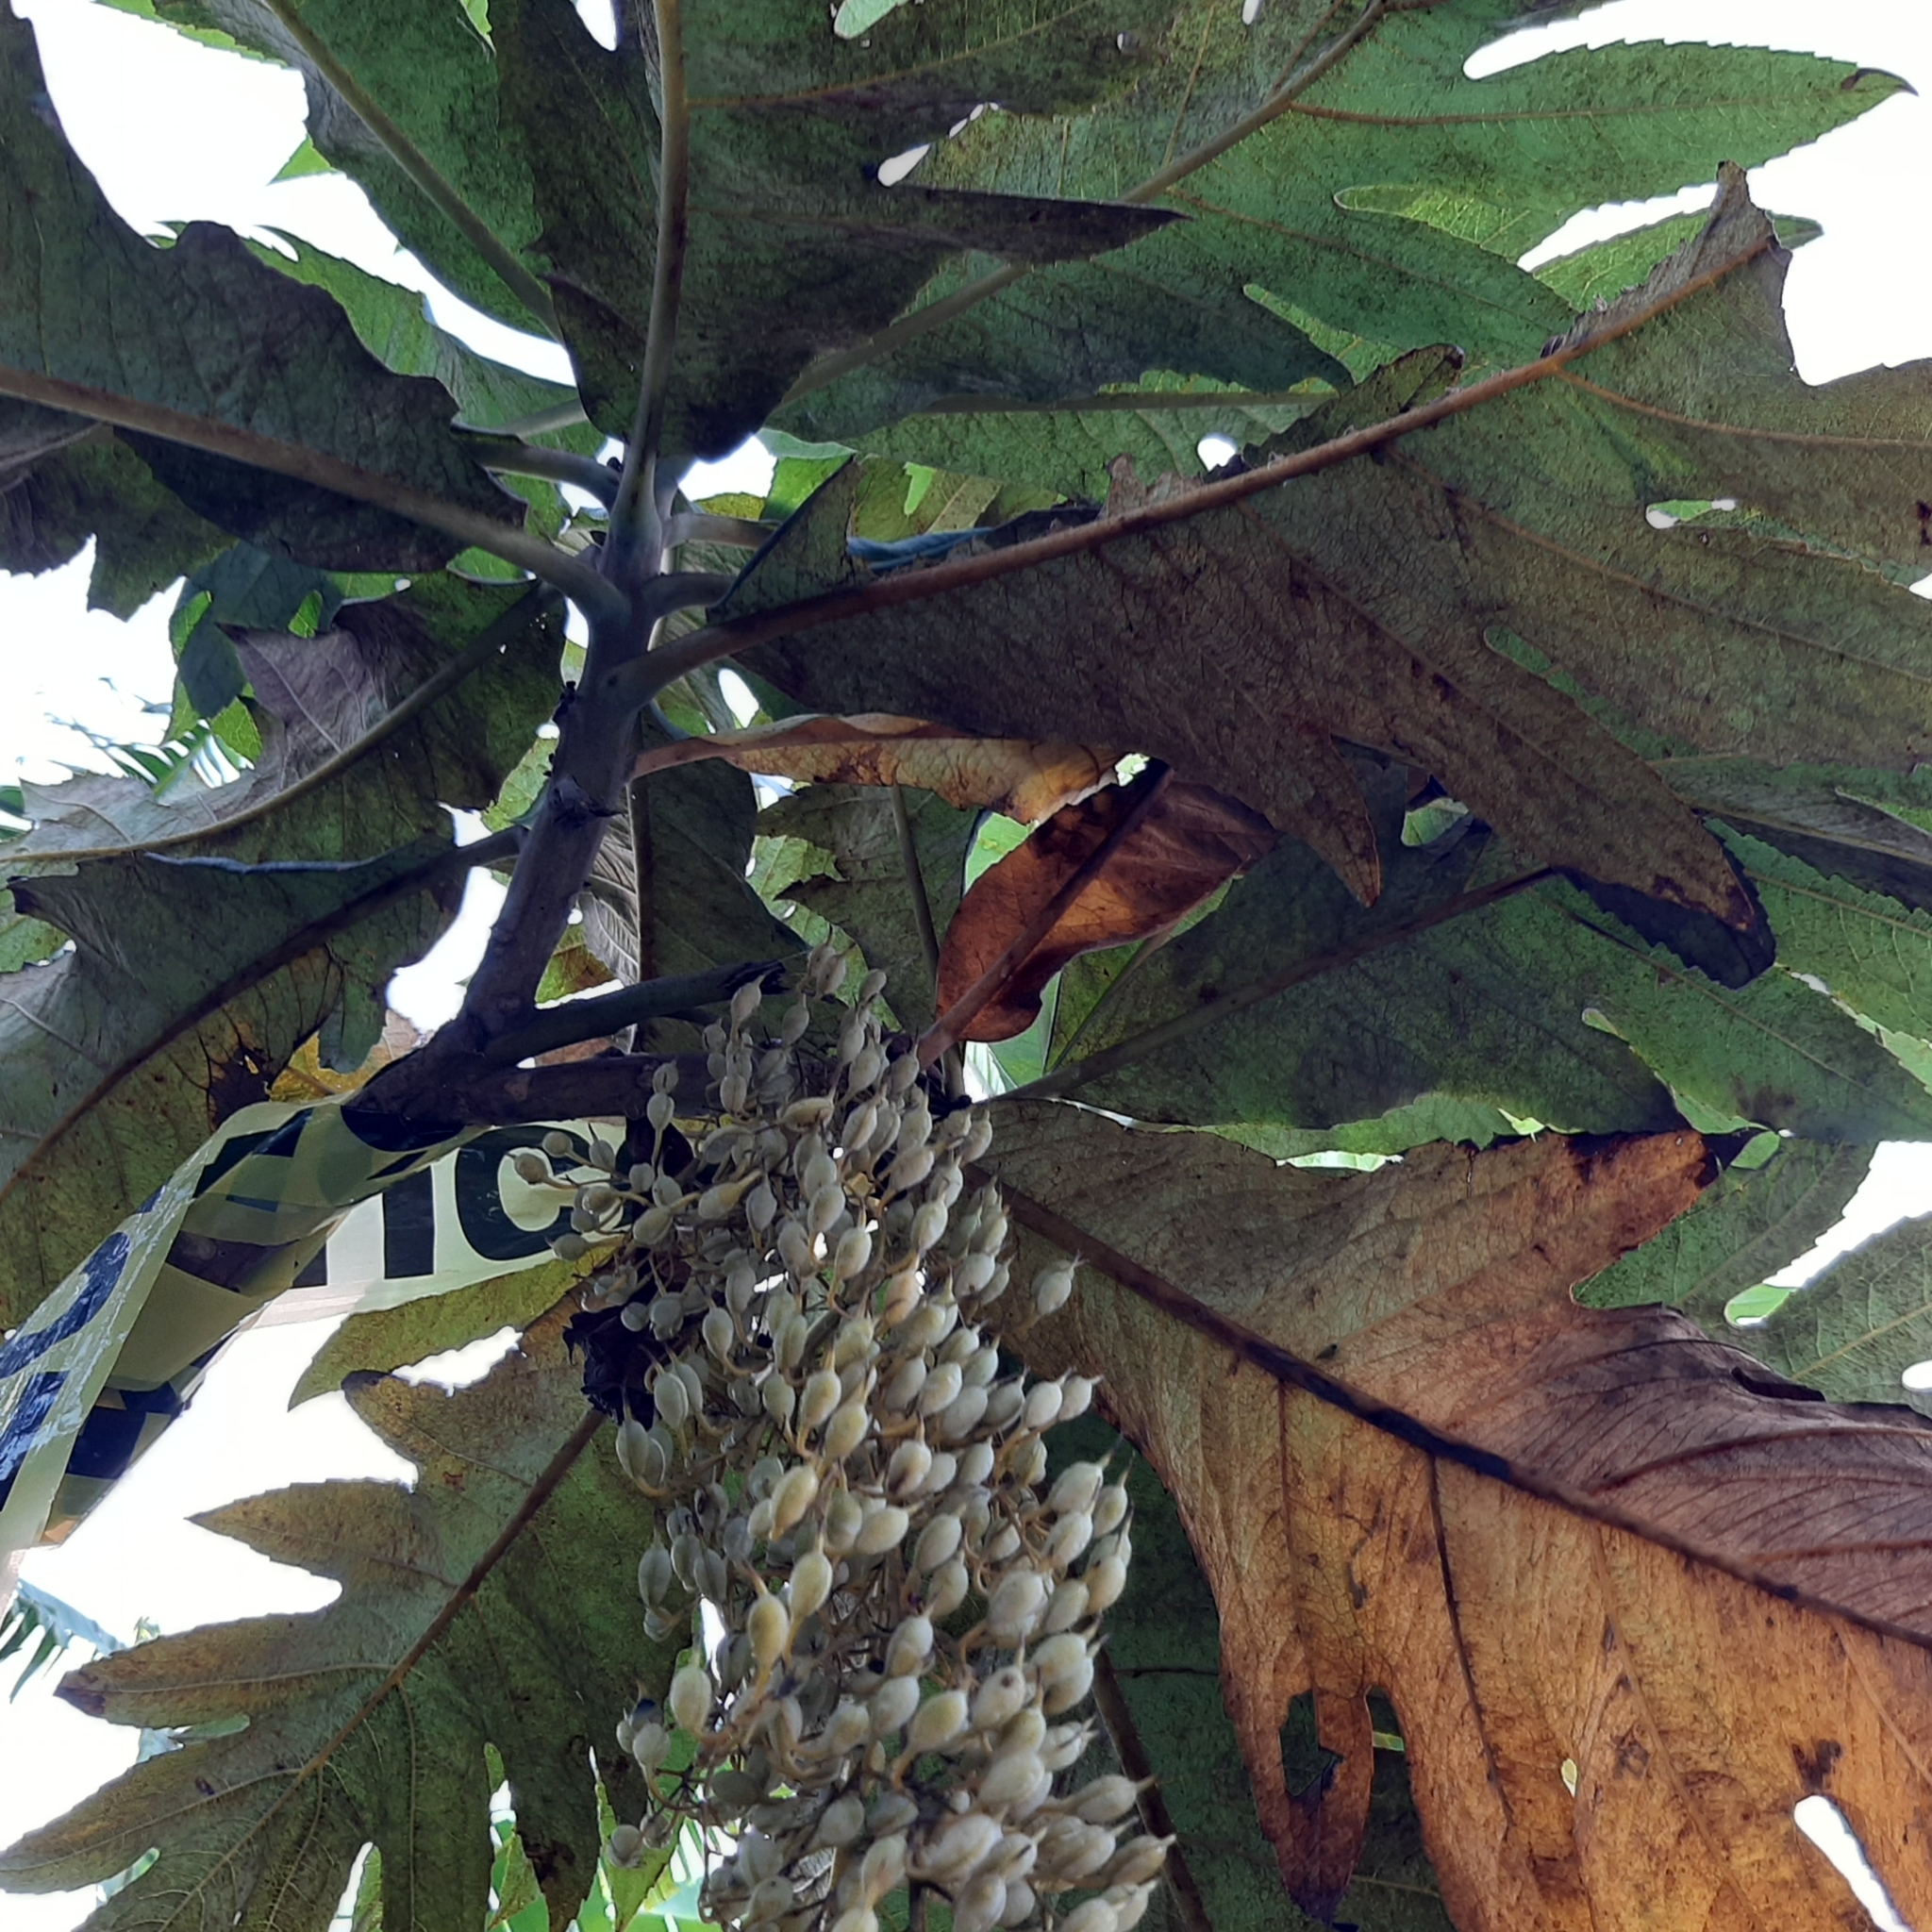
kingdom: Plantae
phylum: Tracheophyta
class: Magnoliopsida
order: Ranunculales
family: Papaveraceae
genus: Bocconia
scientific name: Bocconia frutescens
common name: Tree poppy
